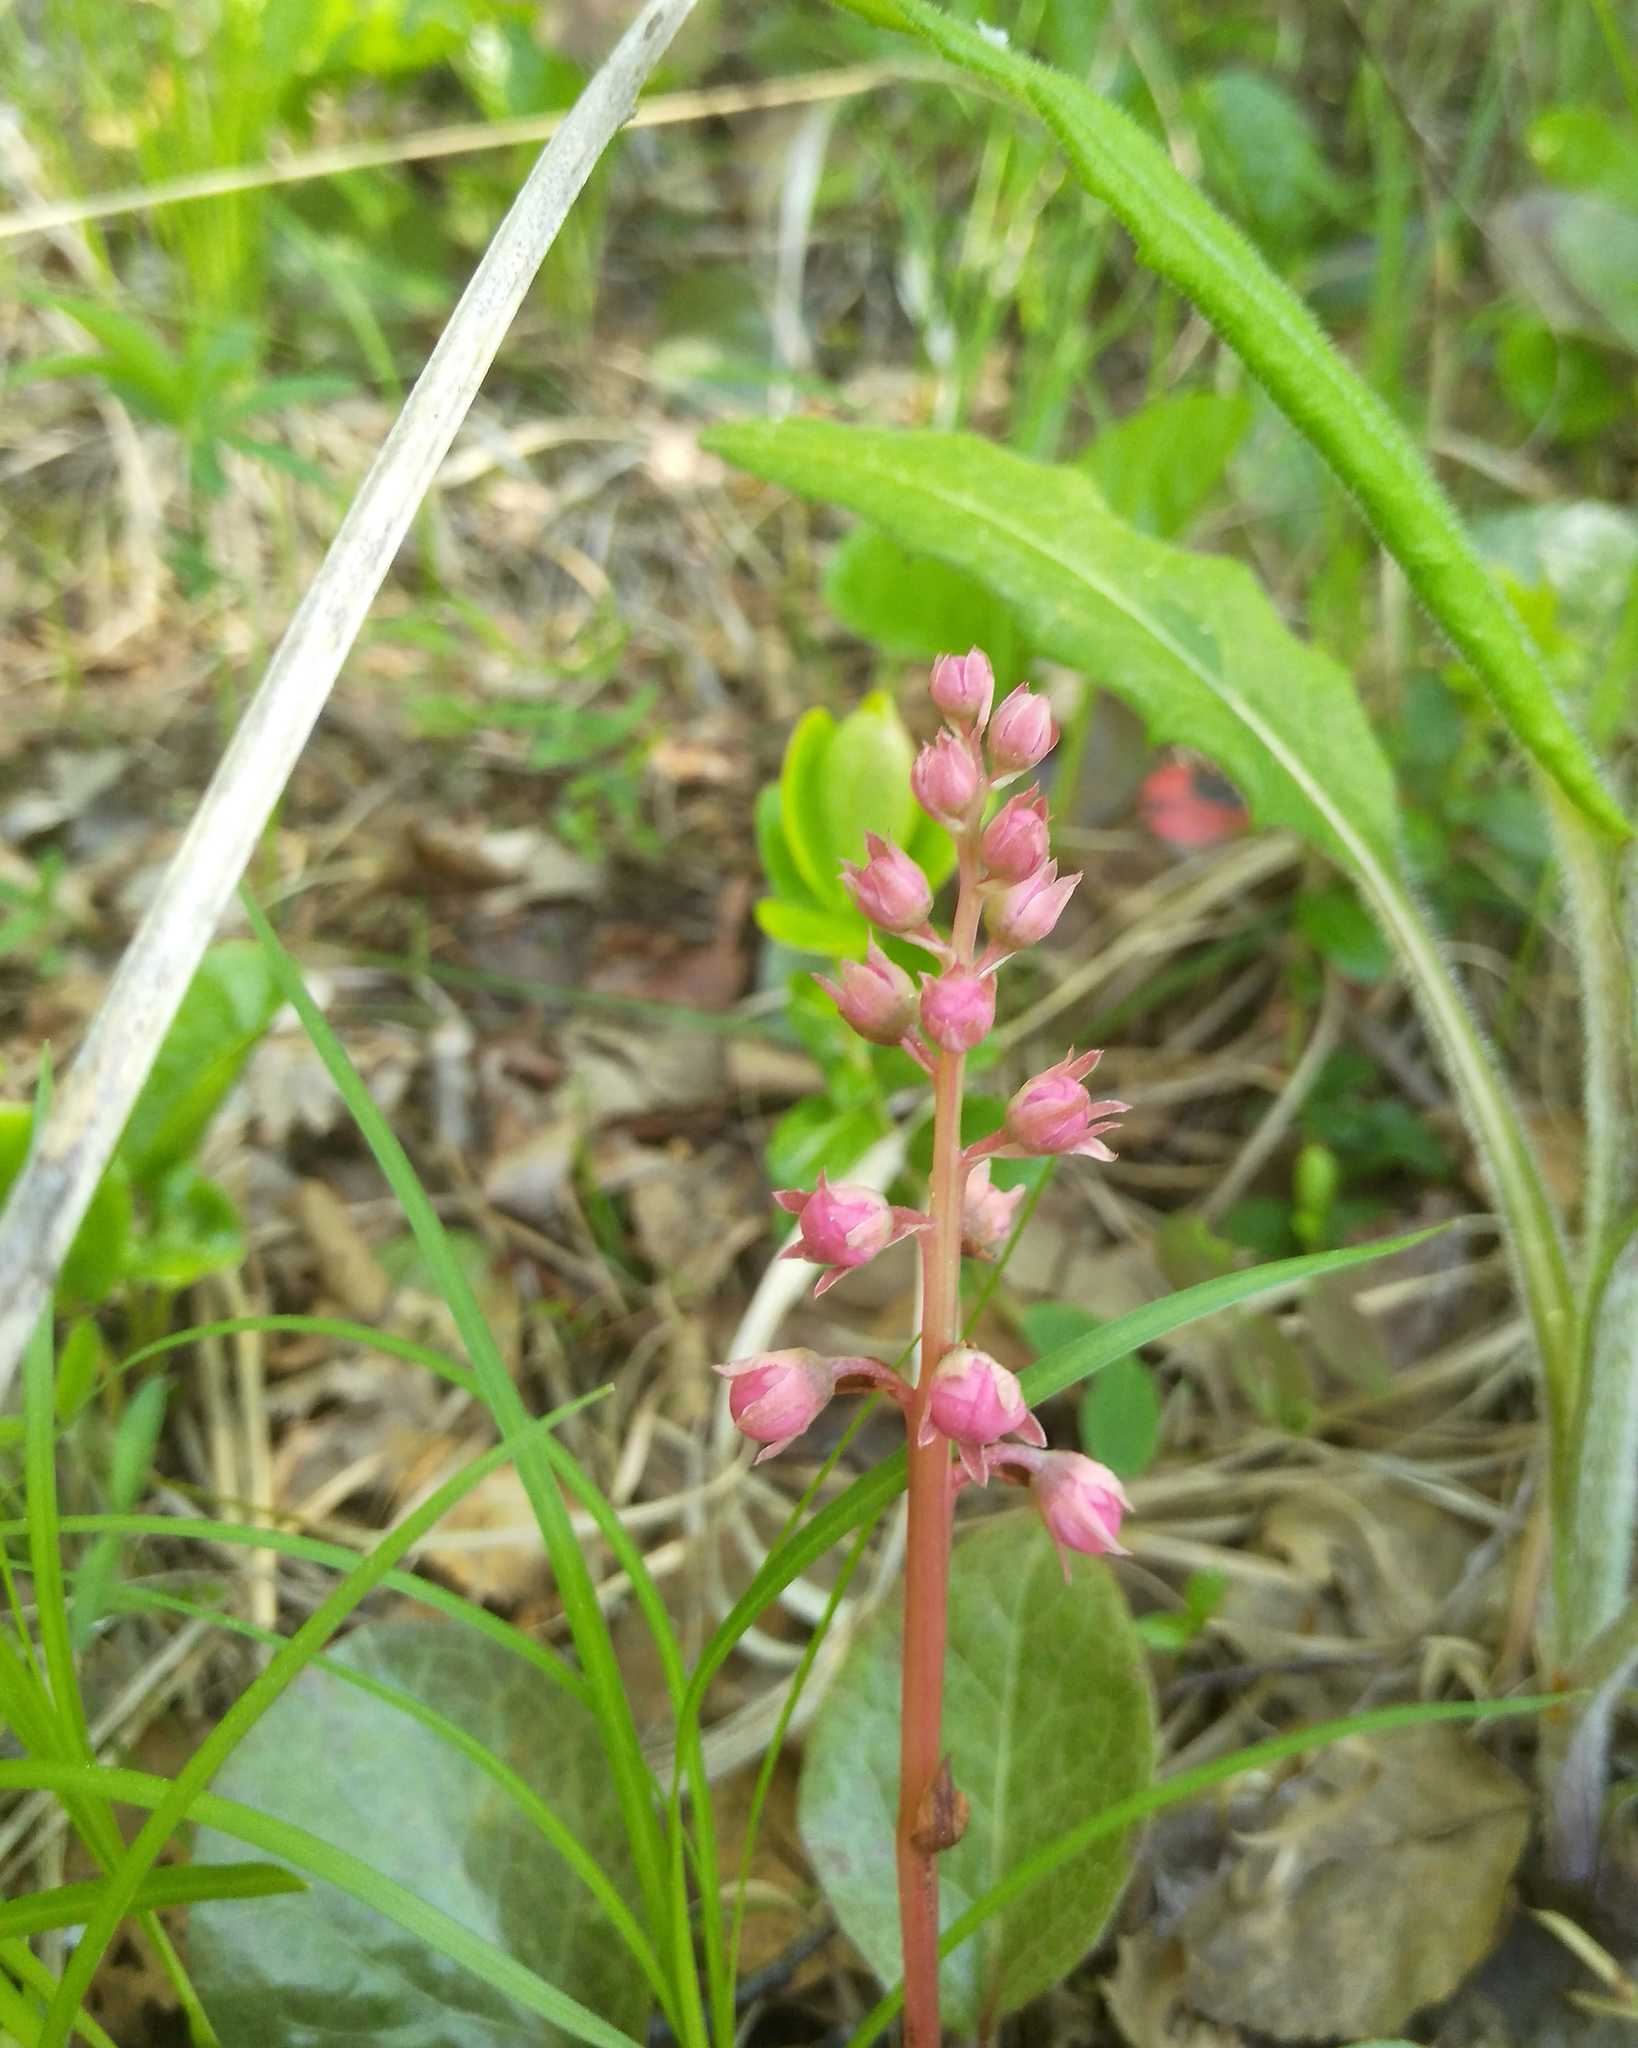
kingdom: Plantae
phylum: Tracheophyta
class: Magnoliopsida
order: Ericales
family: Ericaceae
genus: Pyrola
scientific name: Pyrola asarifolia
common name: Bog wintergreen
